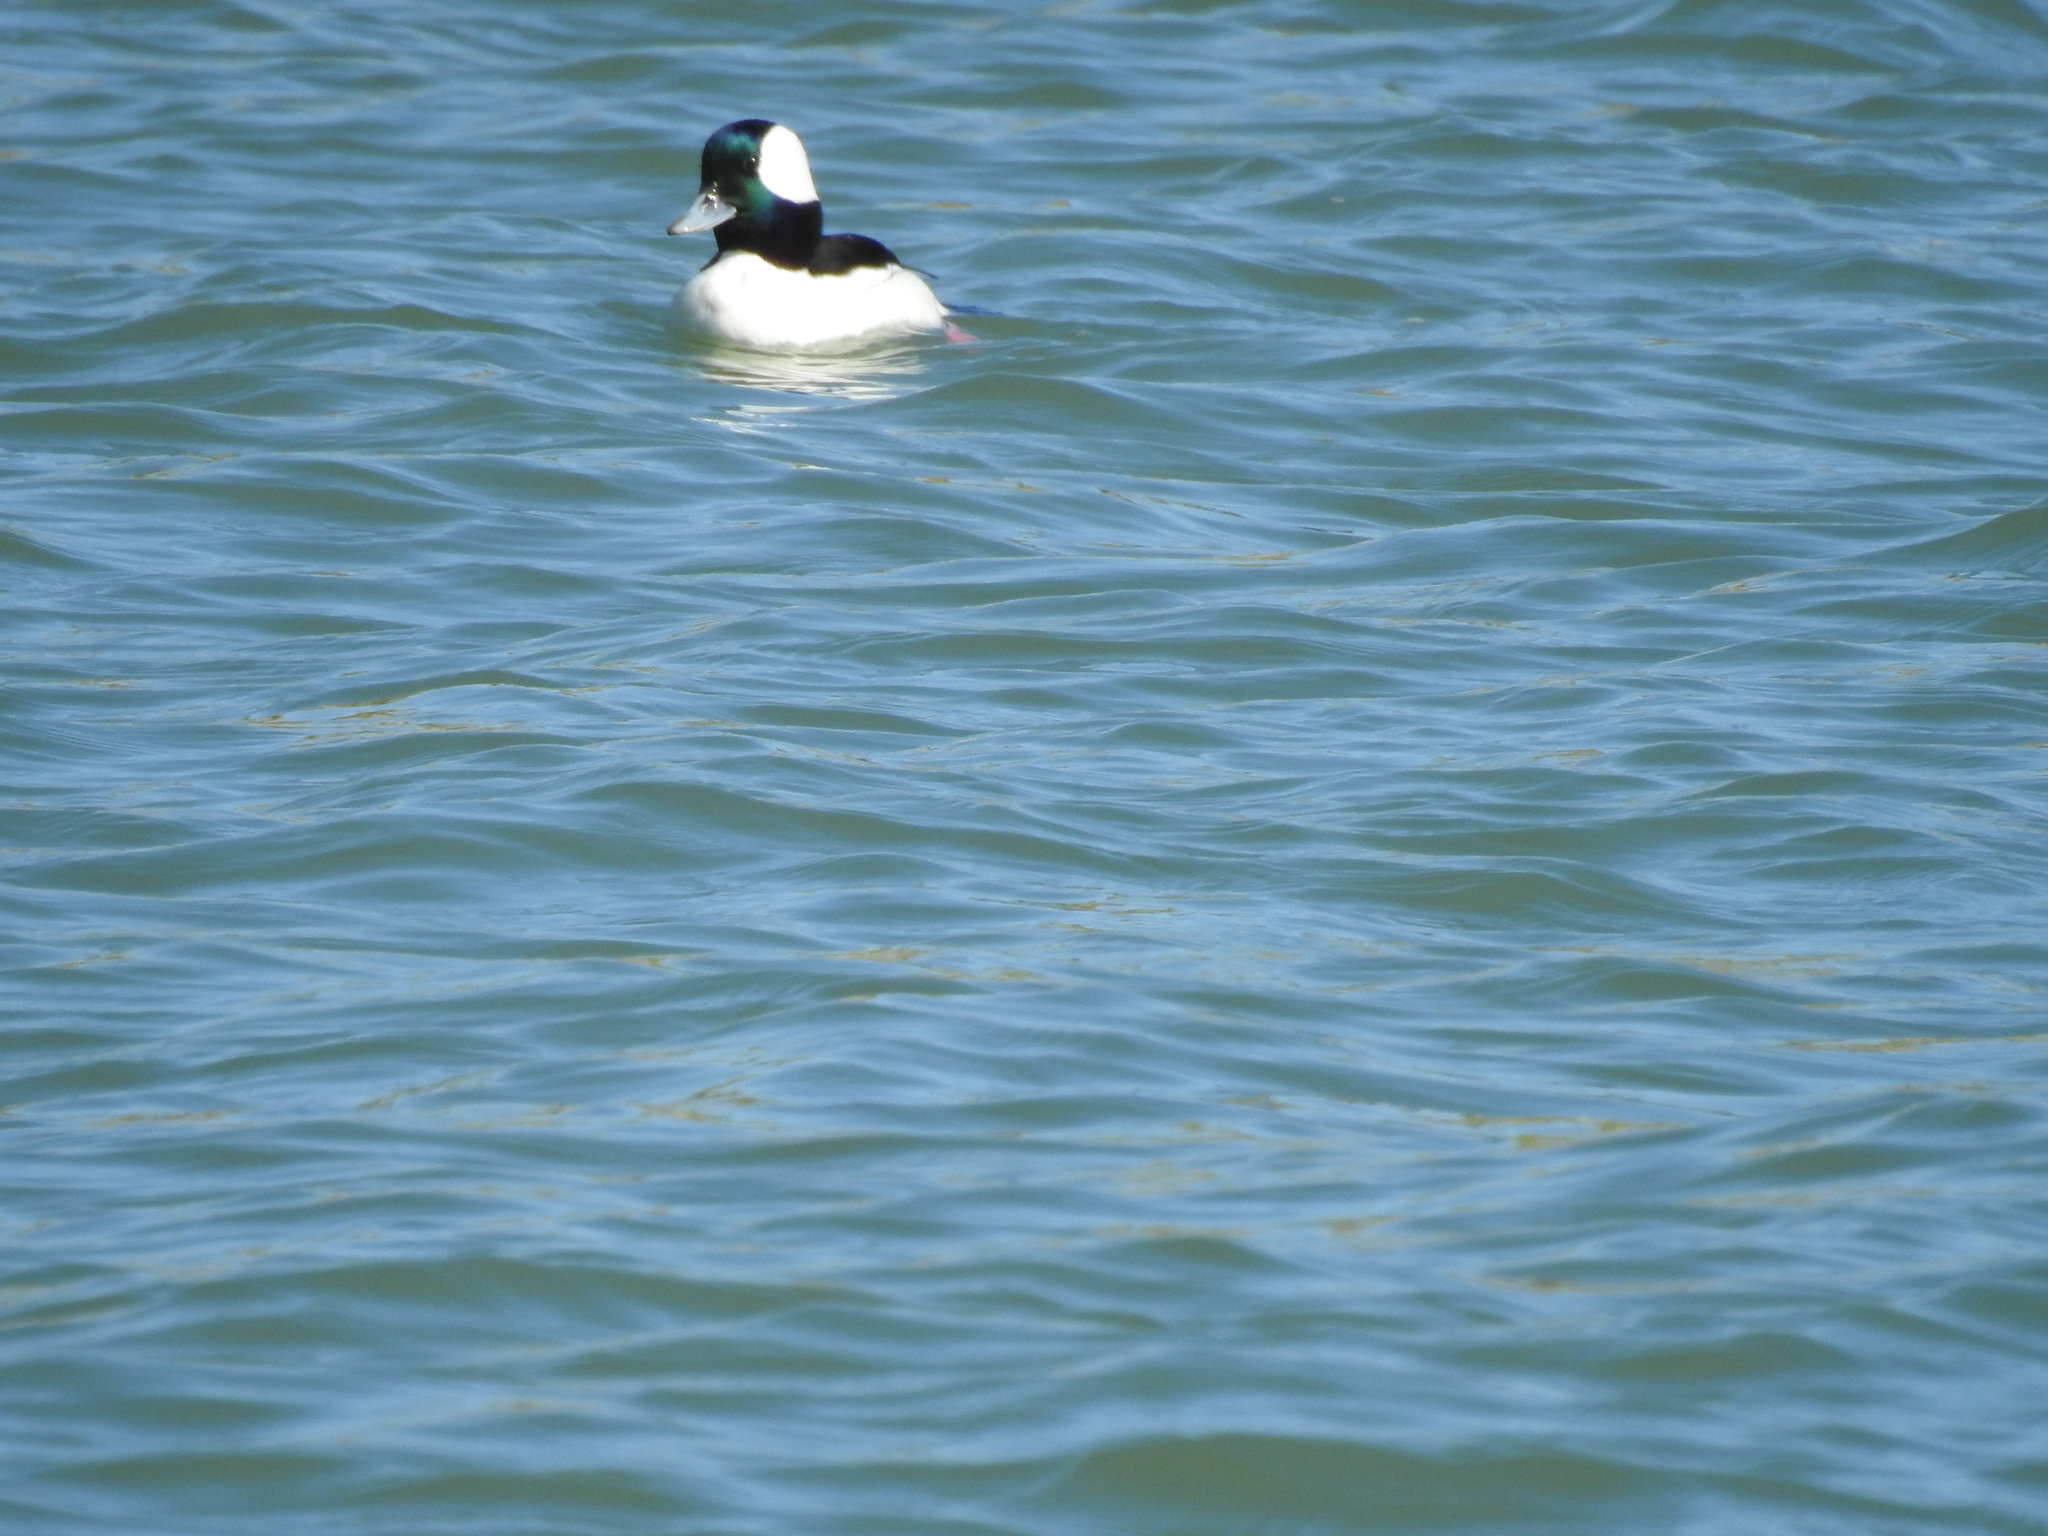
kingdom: Animalia
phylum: Chordata
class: Aves
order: Anseriformes
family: Anatidae
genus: Bucephala
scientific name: Bucephala albeola
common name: Bufflehead
